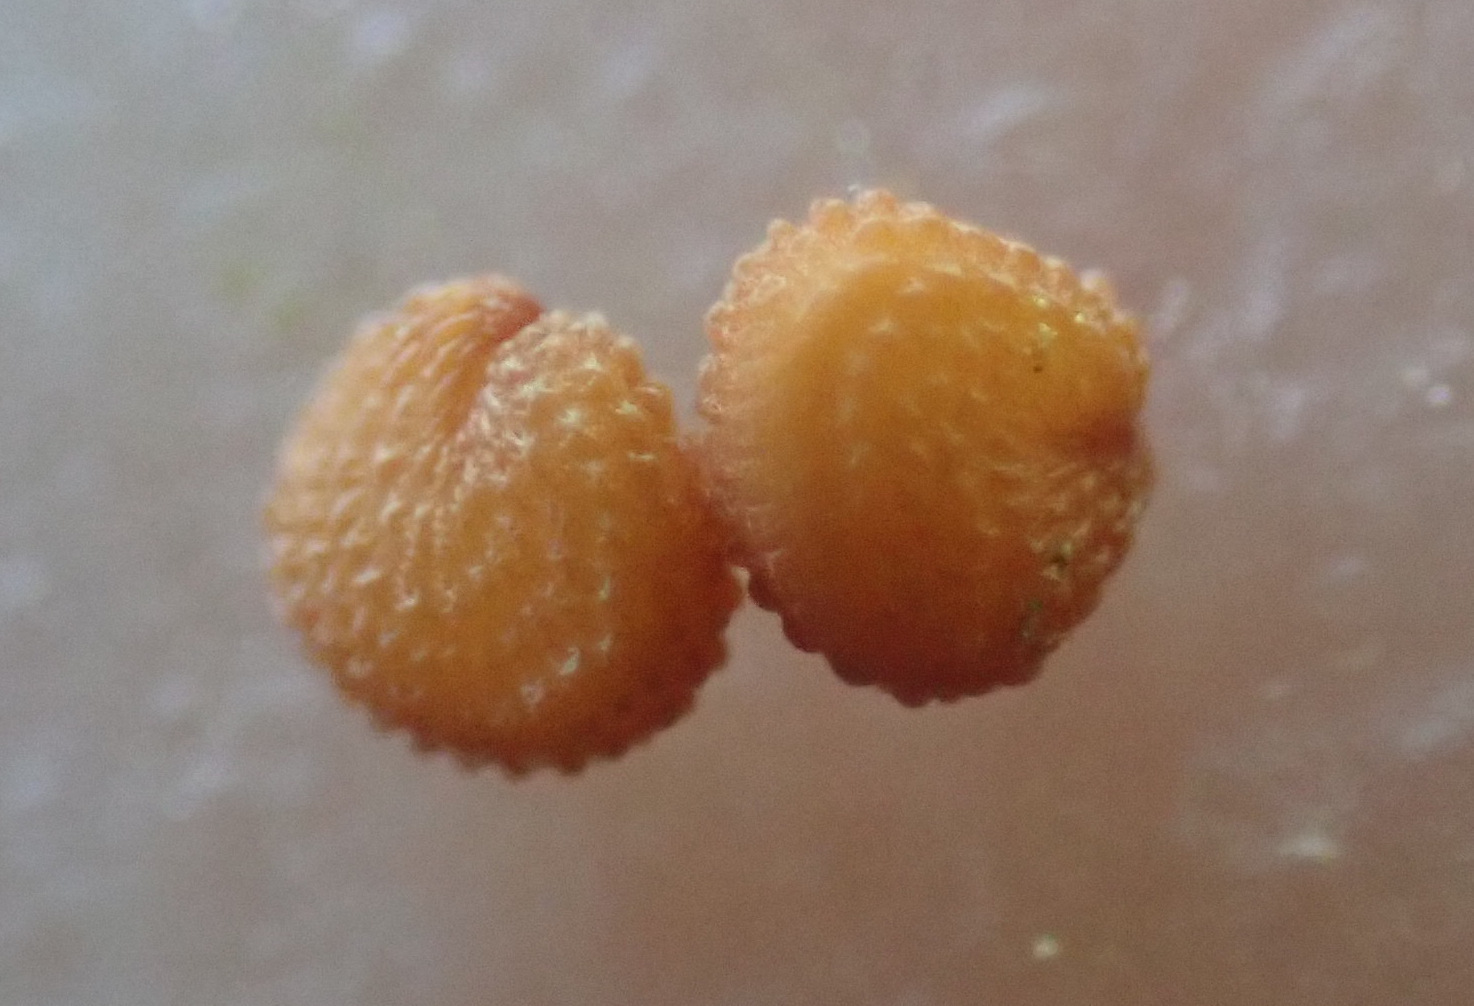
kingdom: Plantae
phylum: Tracheophyta
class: Magnoliopsida
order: Caryophyllales
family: Caryophyllaceae
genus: Stellaria
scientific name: Stellaria media
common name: Common chickweed
